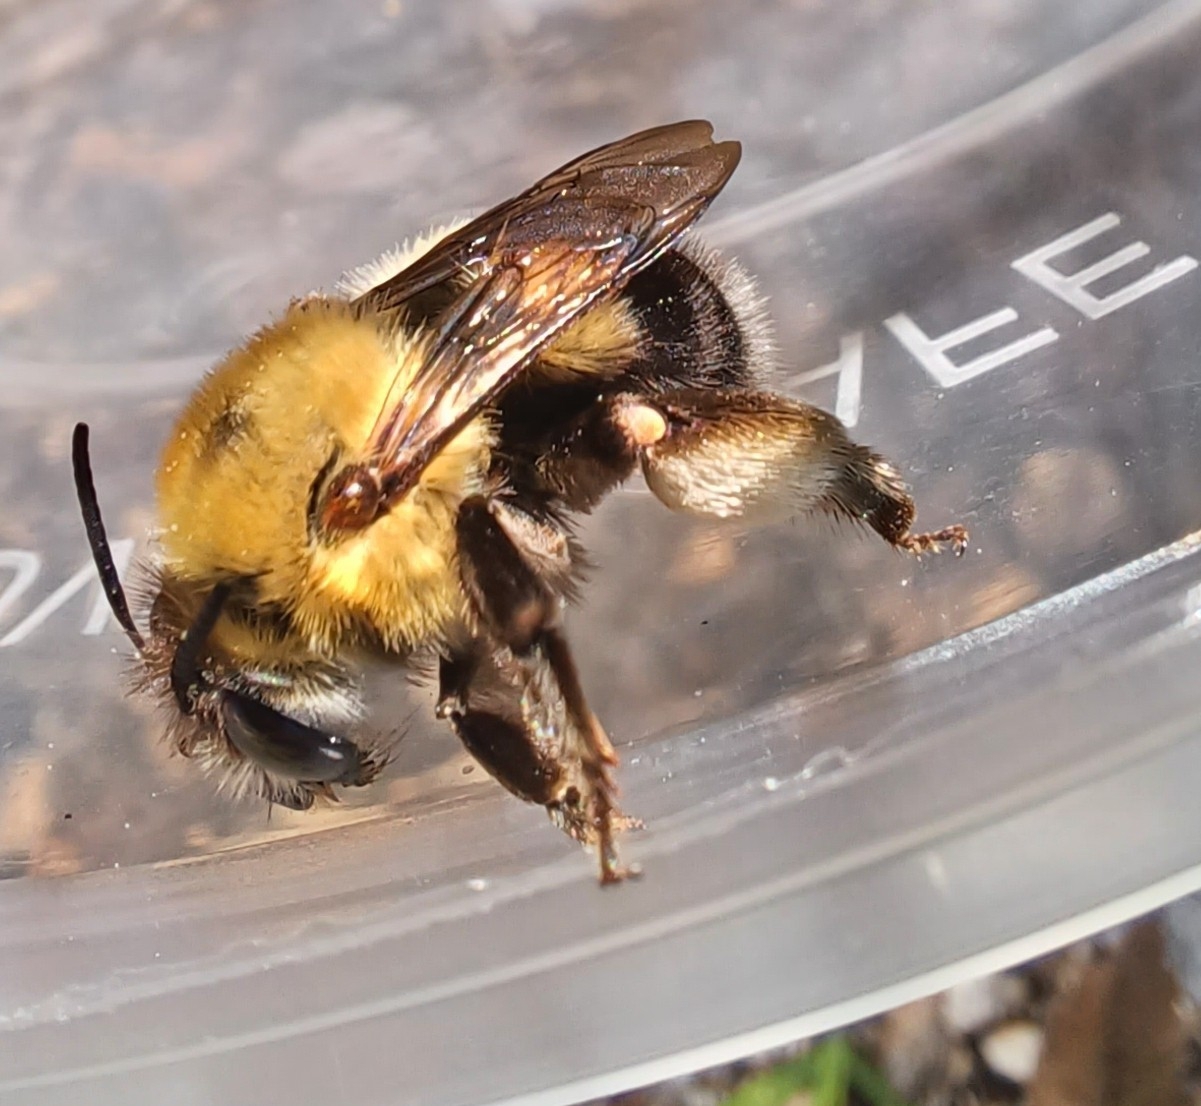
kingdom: Animalia
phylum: Arthropoda
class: Insecta
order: Hymenoptera
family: Apidae
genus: Habropoda
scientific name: Habropoda tarsata
